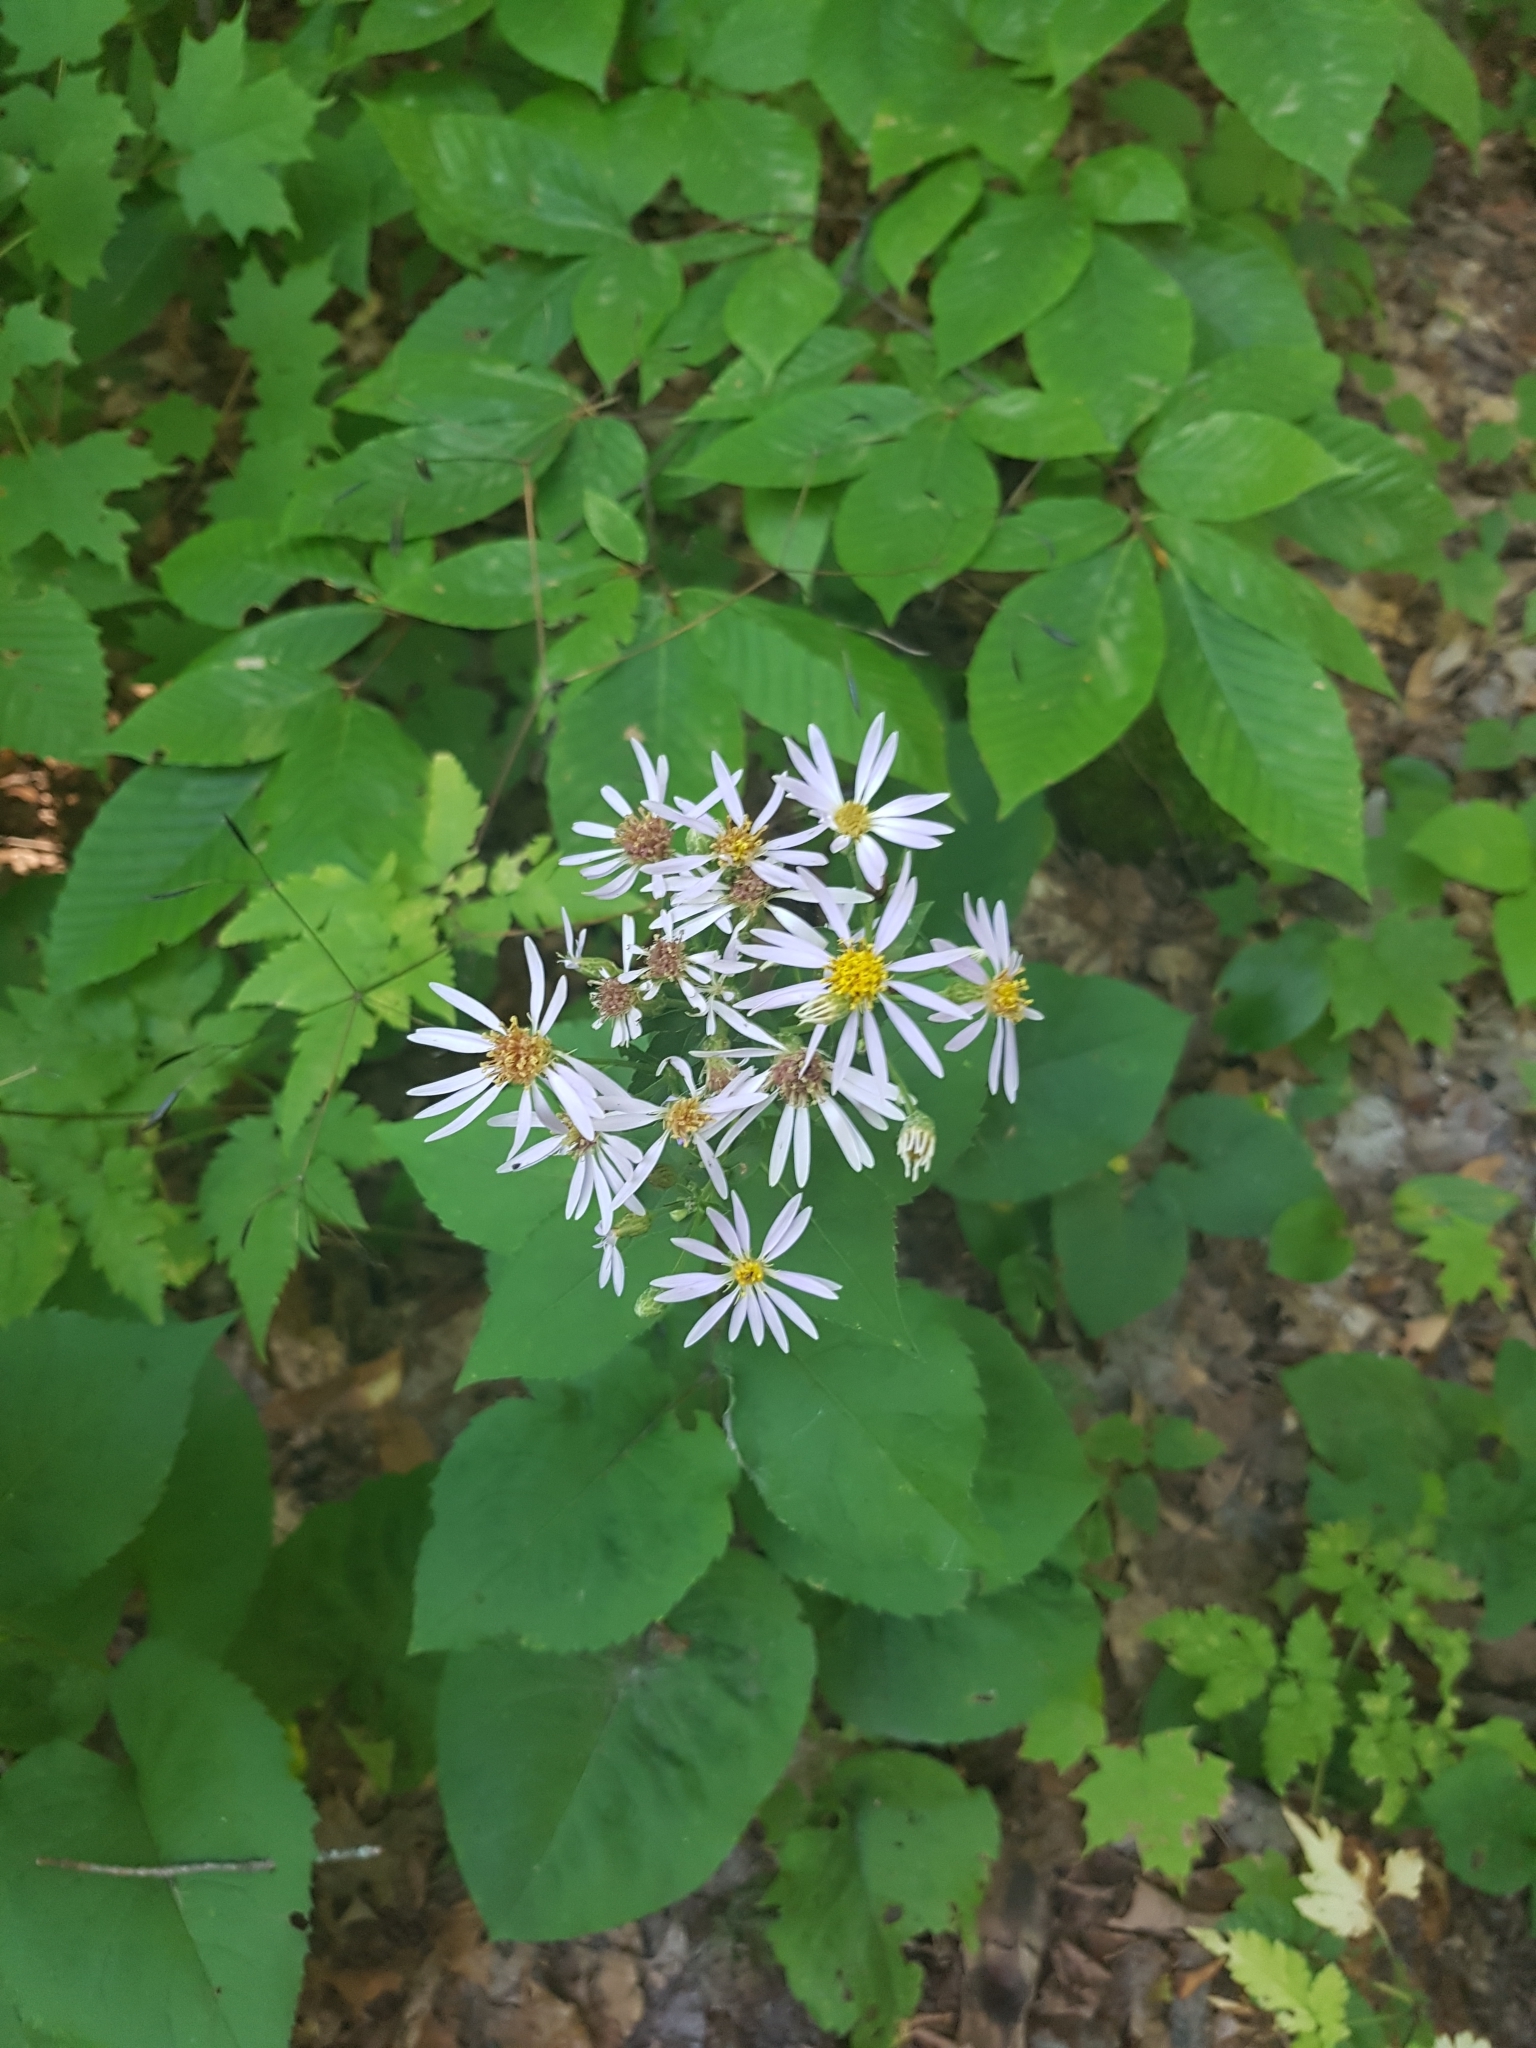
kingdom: Plantae
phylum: Tracheophyta
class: Magnoliopsida
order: Asterales
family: Asteraceae
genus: Eurybia
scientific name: Eurybia macrophylla
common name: Big-leaved aster
